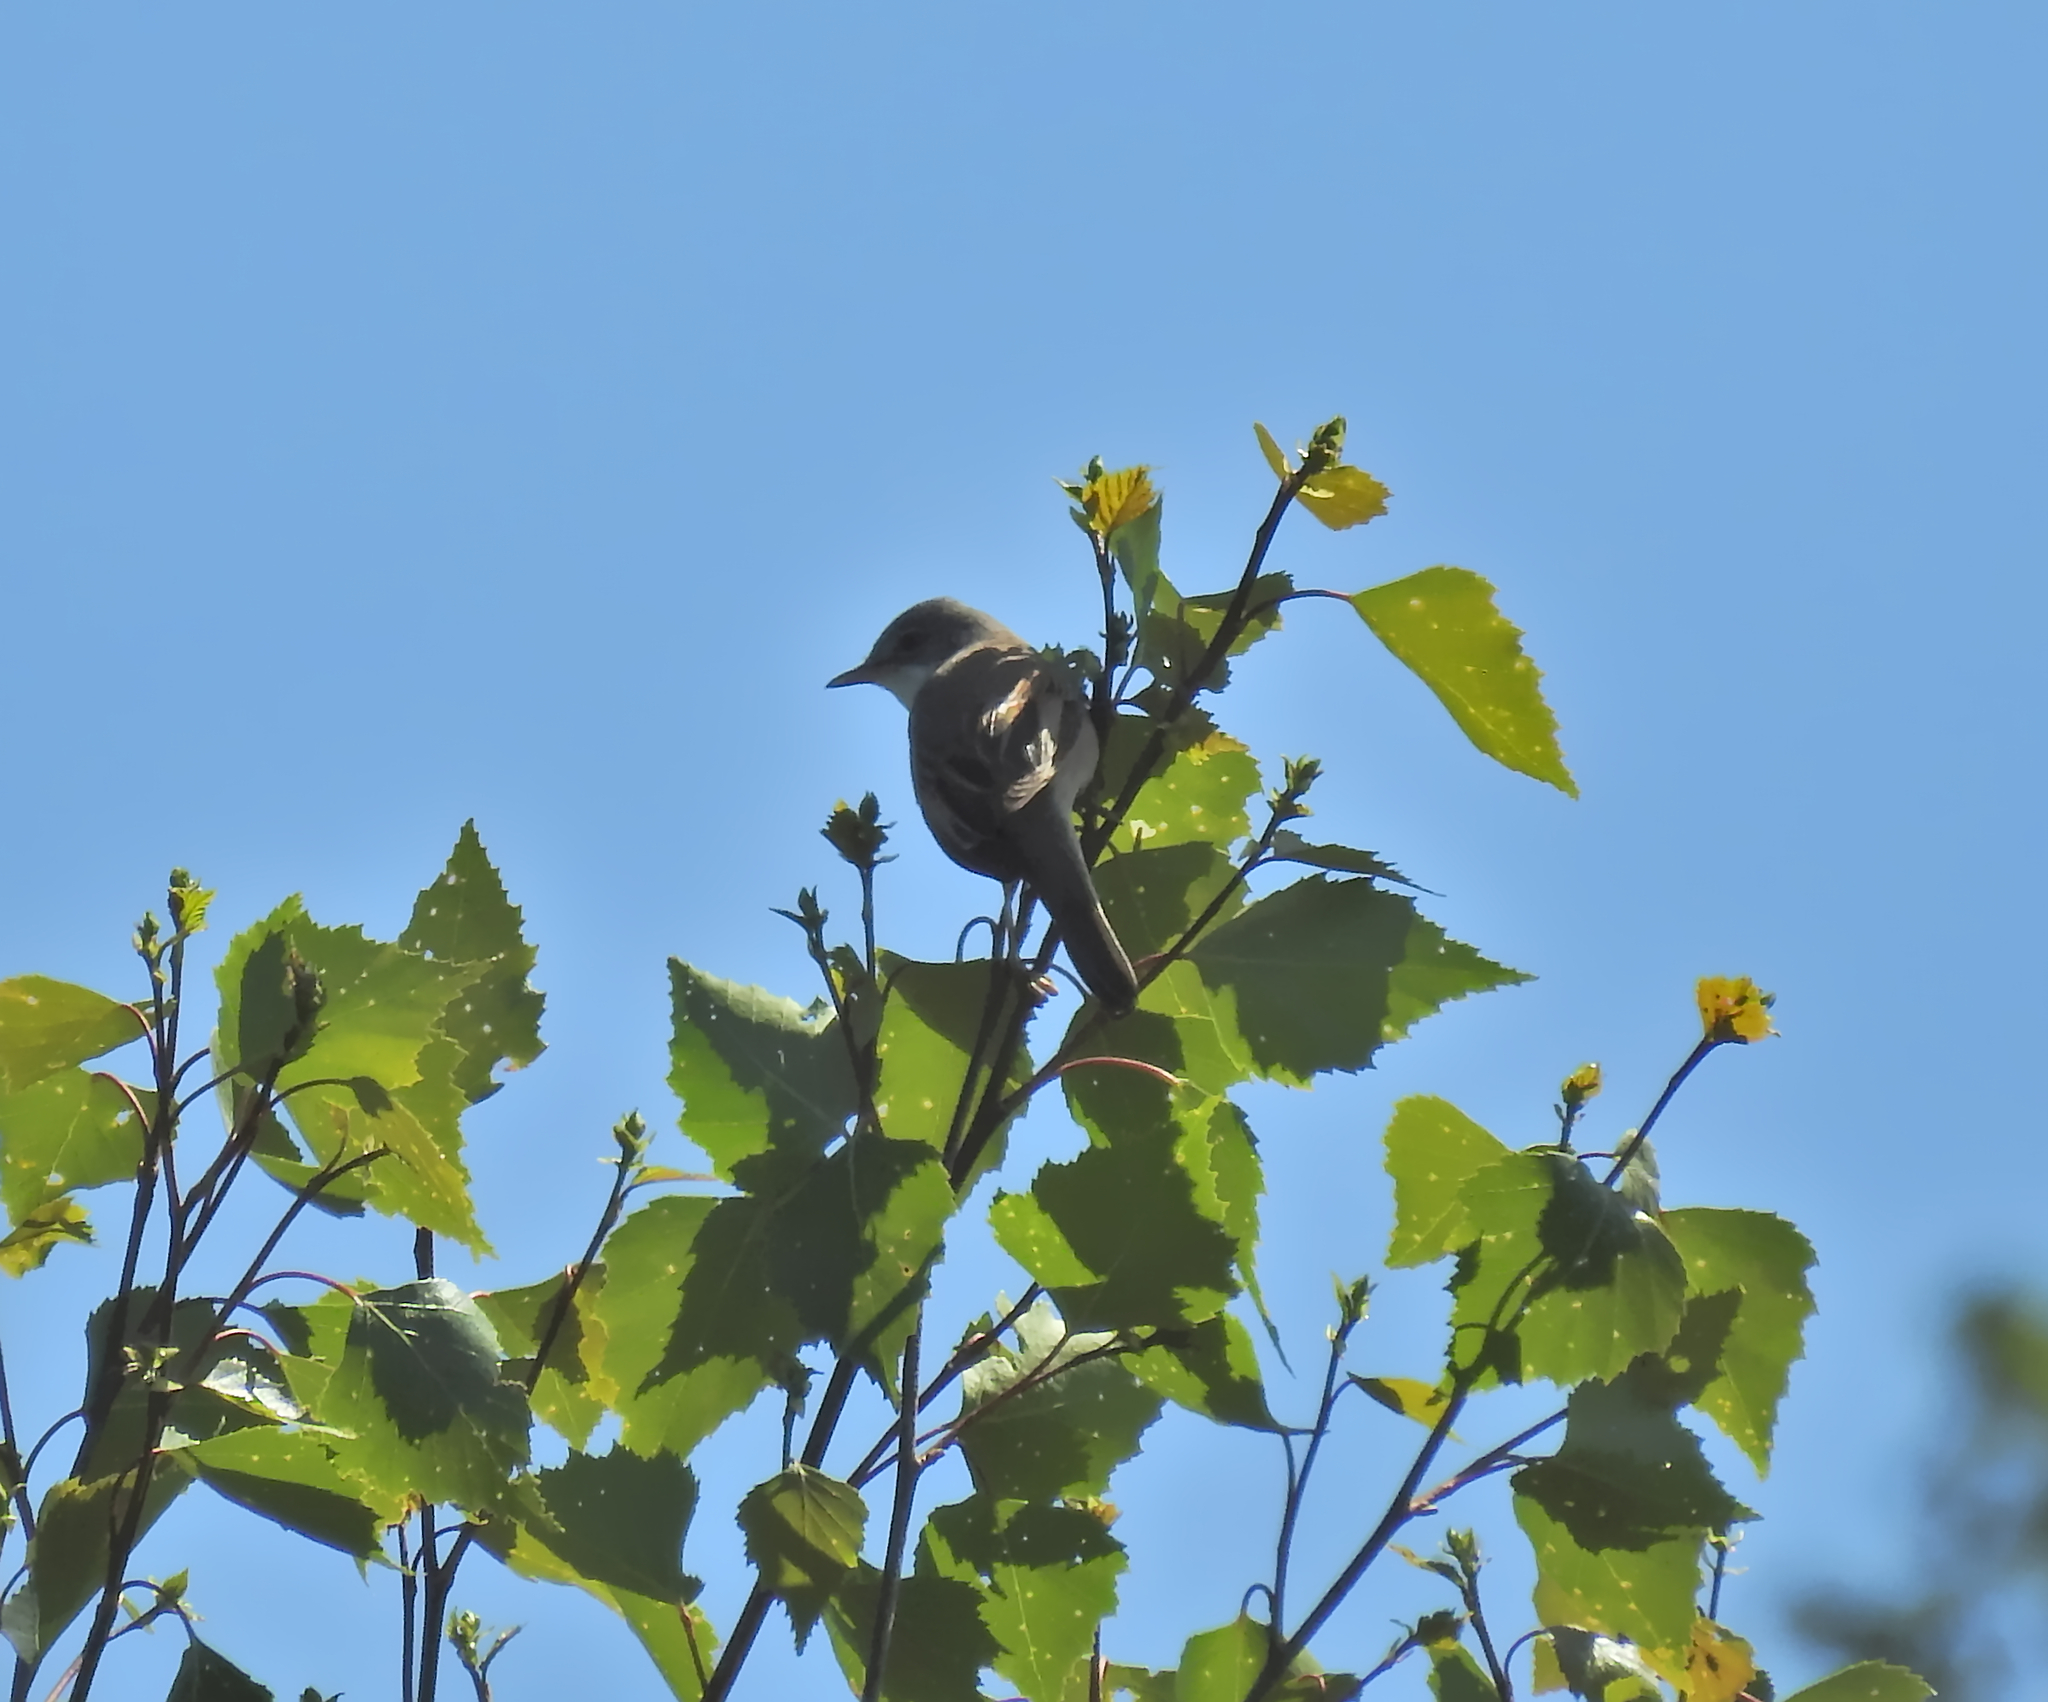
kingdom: Animalia
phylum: Chordata
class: Aves
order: Passeriformes
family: Sylviidae
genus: Sylvia
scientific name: Sylvia communis
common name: Common whitethroat
